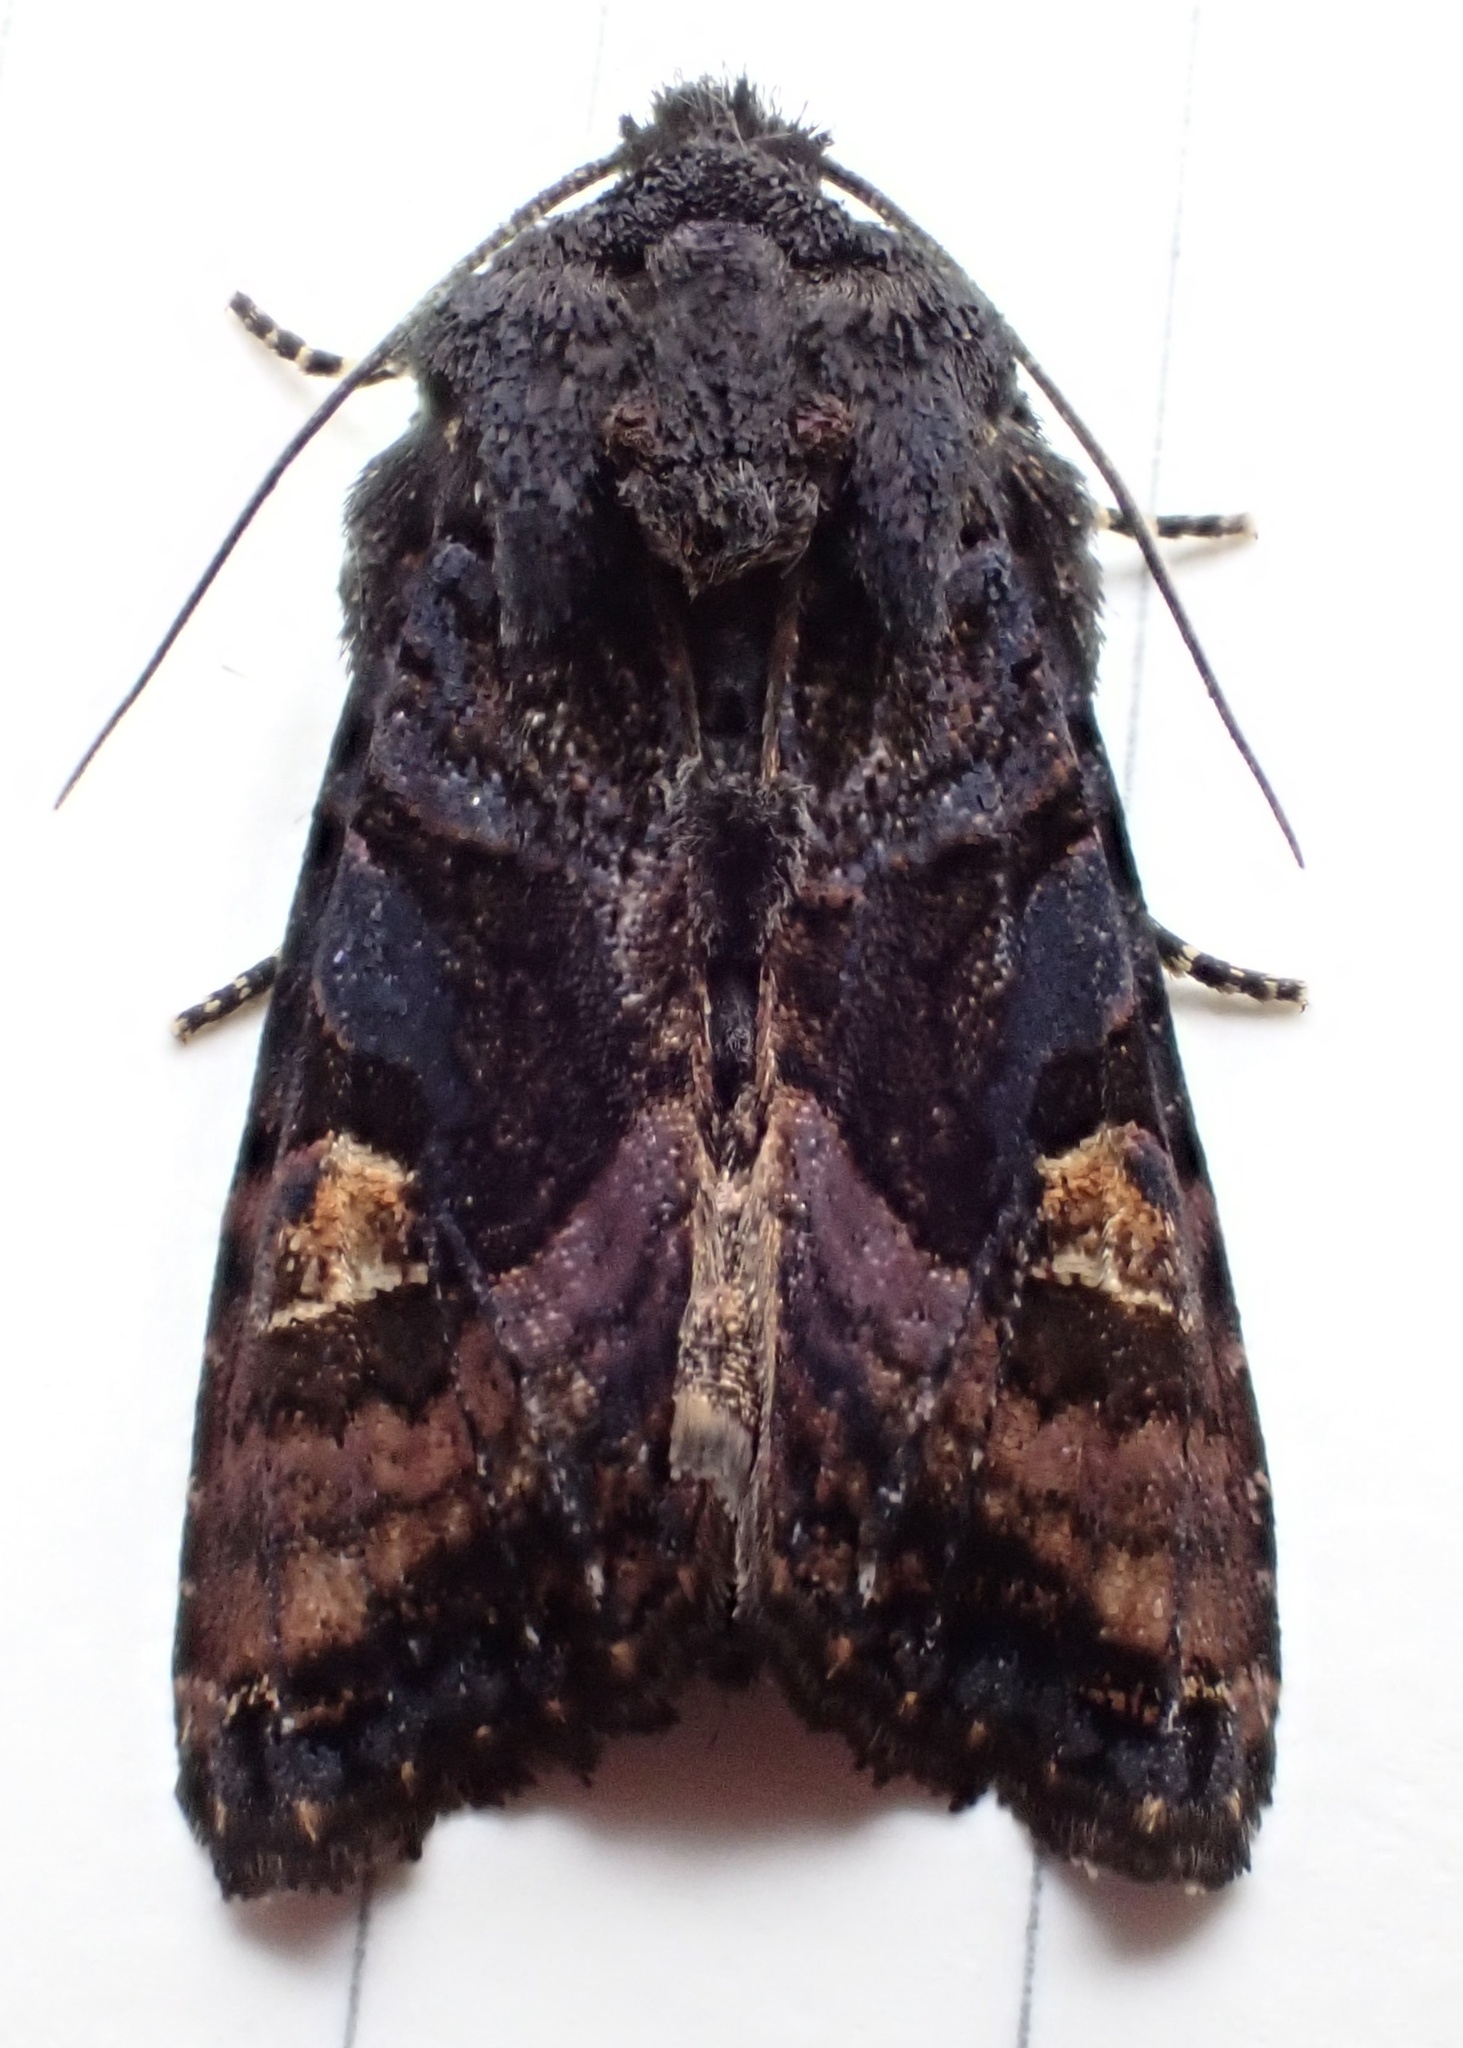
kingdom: Animalia
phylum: Arthropoda
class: Insecta
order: Lepidoptera
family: Noctuidae
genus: Euplexia
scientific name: Euplexia benesimilis
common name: American angle shades
